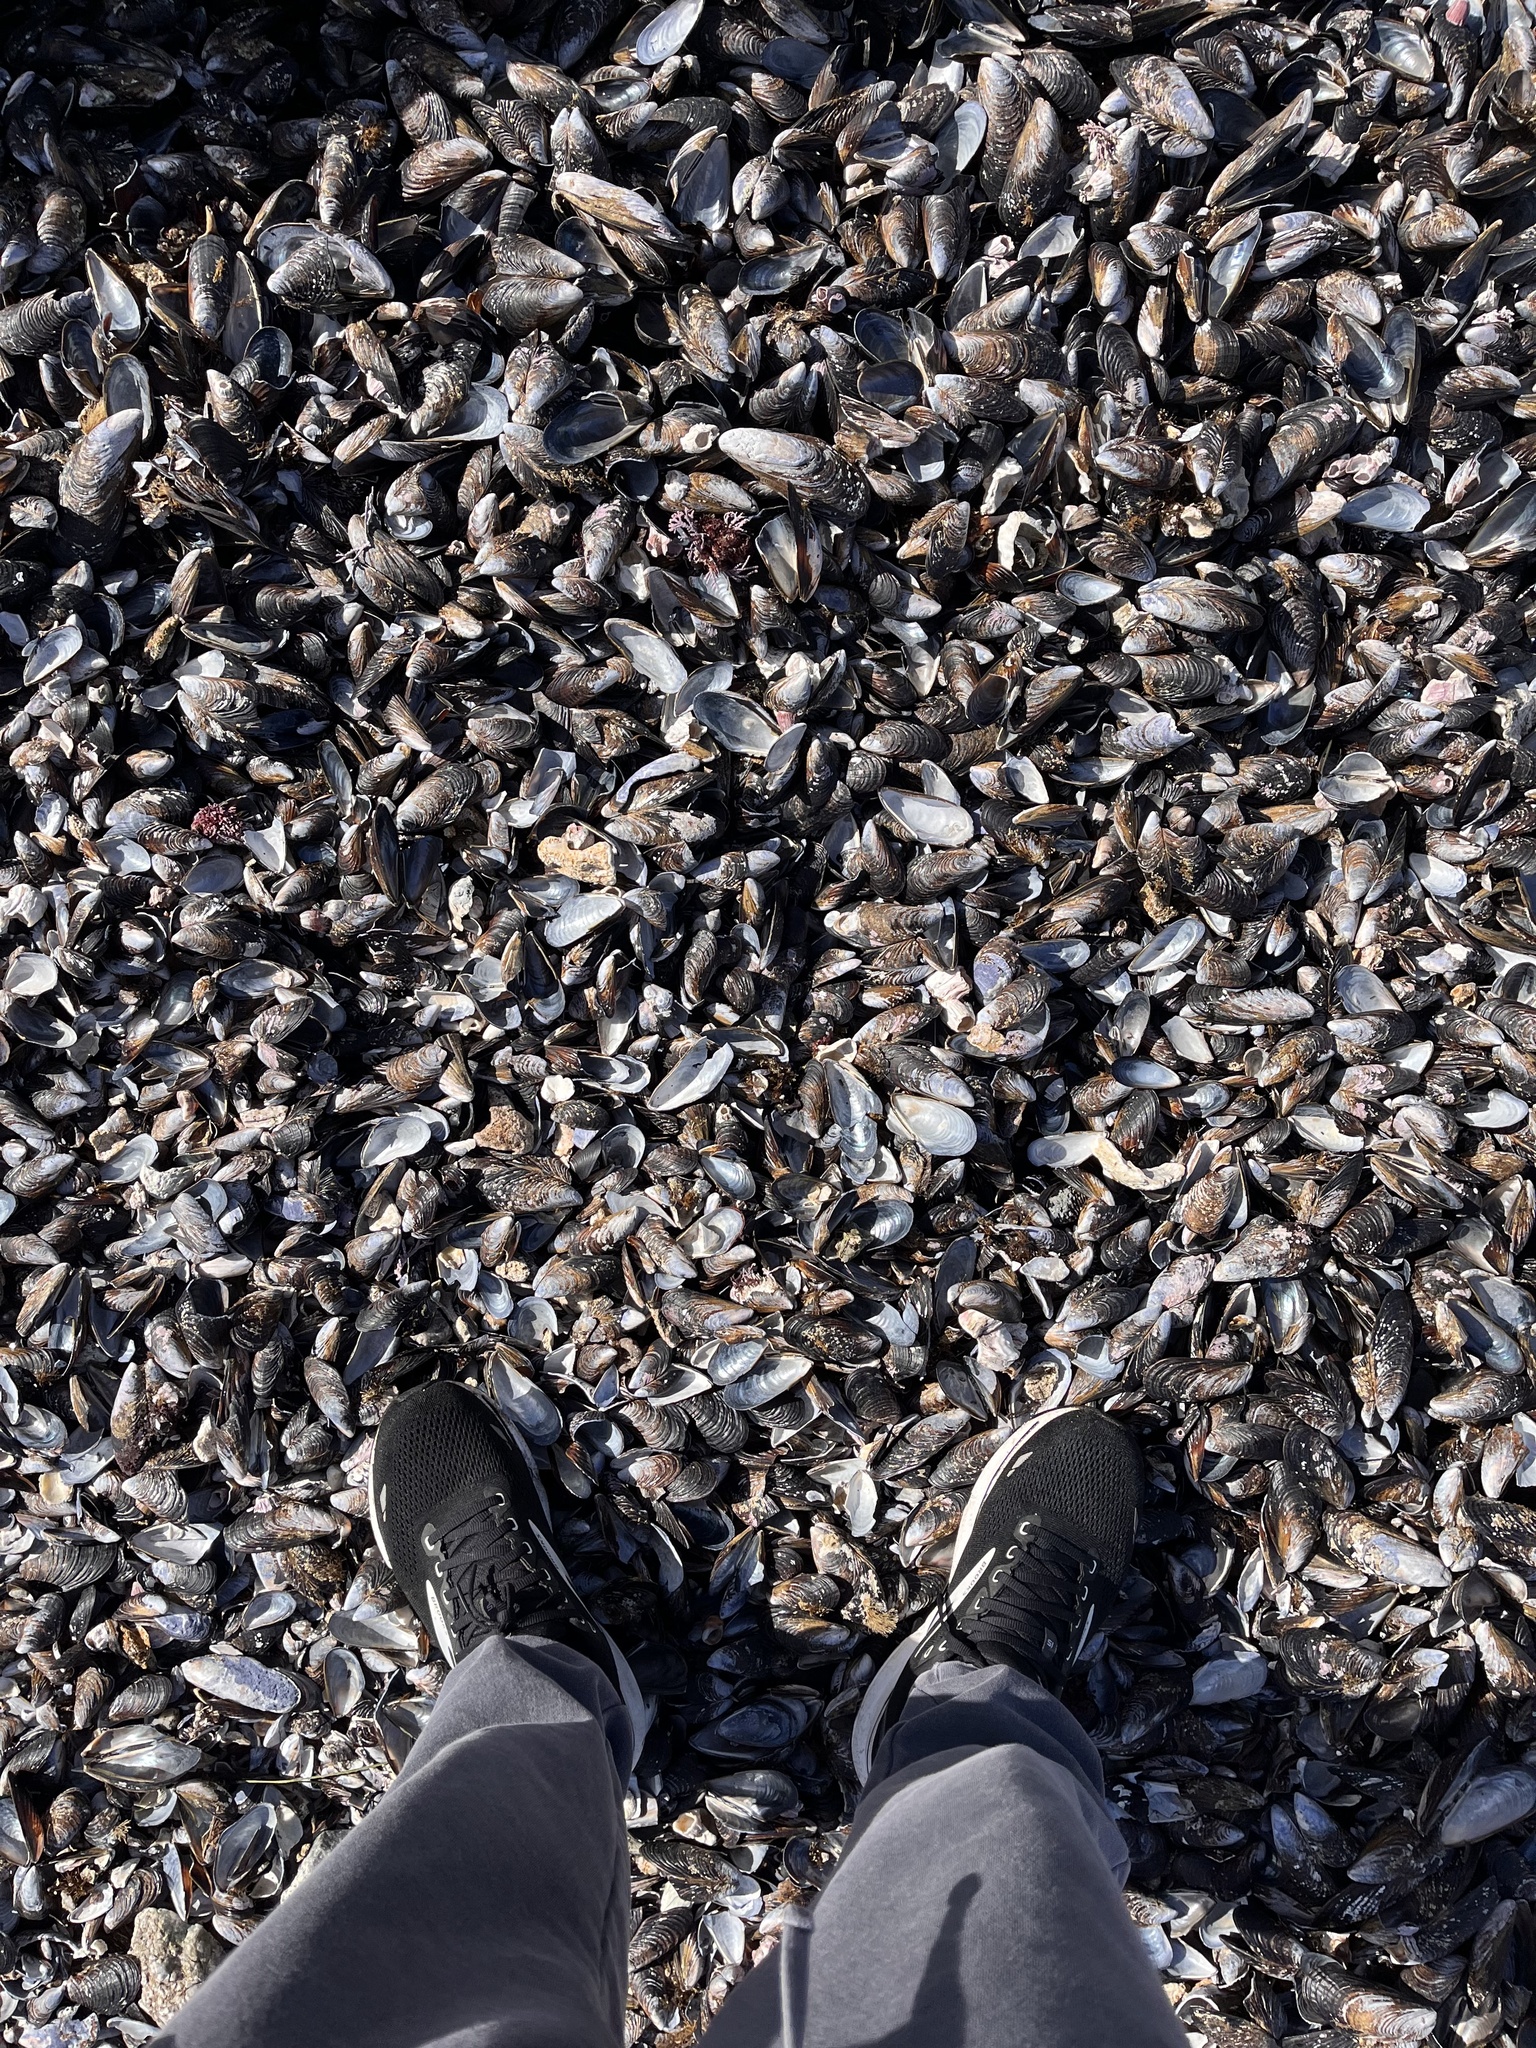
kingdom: Animalia
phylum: Mollusca
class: Bivalvia
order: Mytilida
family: Mytilidae
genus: Mytilus
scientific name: Mytilus californianus
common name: California mussel
